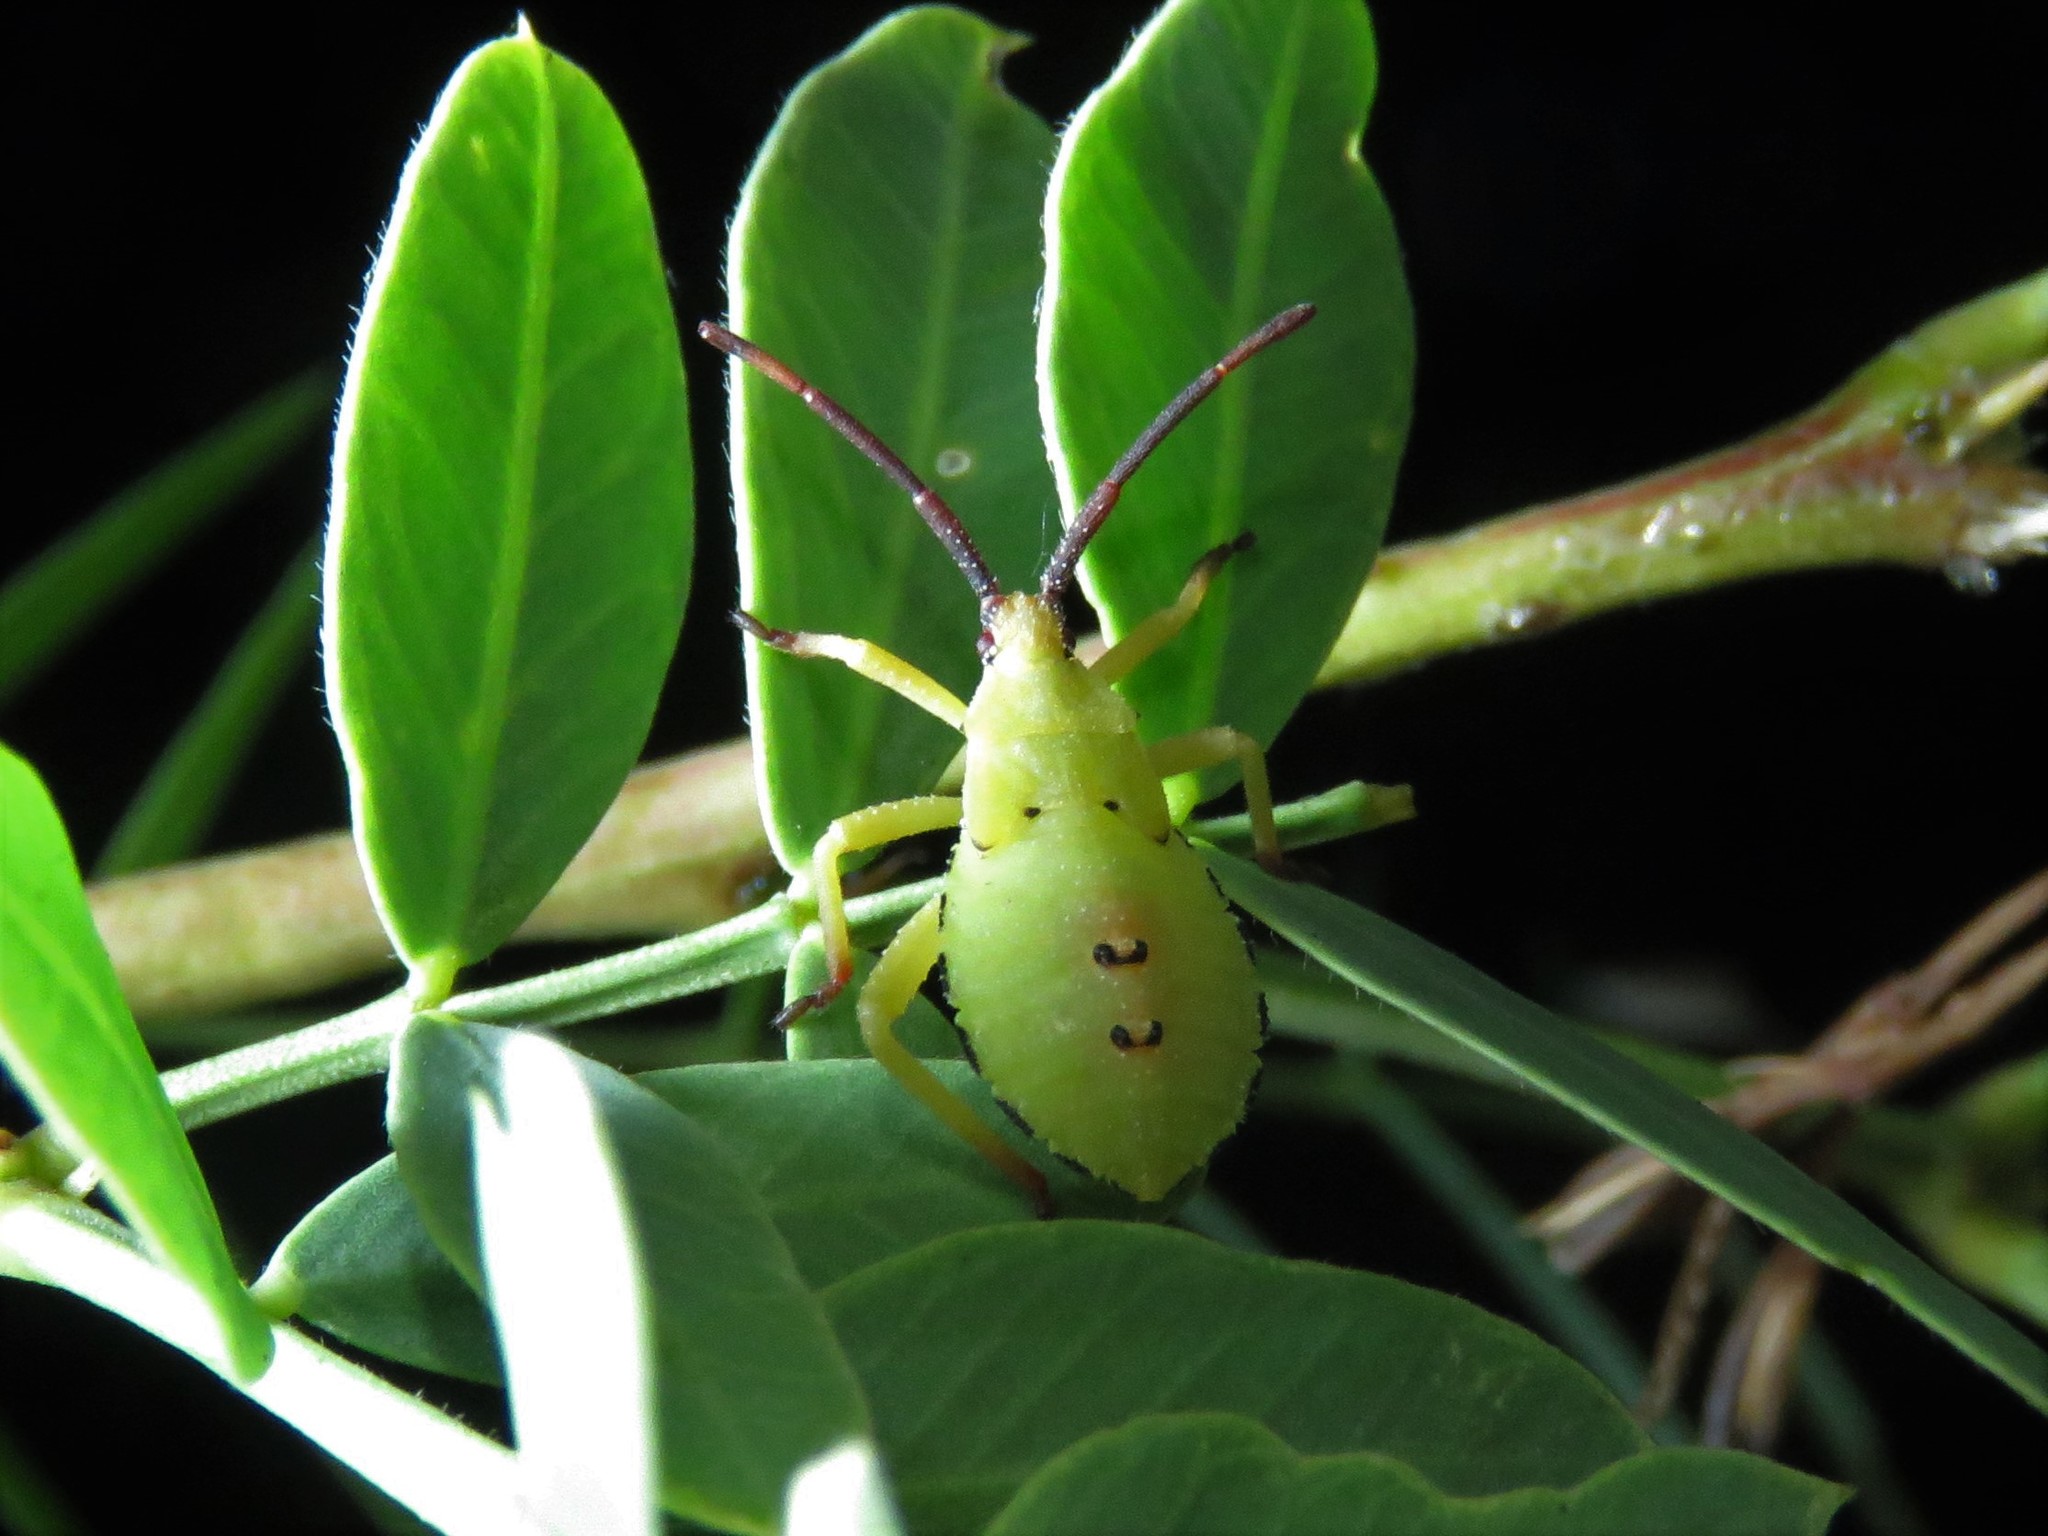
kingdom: Animalia
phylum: Arthropoda
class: Insecta
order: Hemiptera
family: Coreidae
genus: Mozena
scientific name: Mozena obtusa
